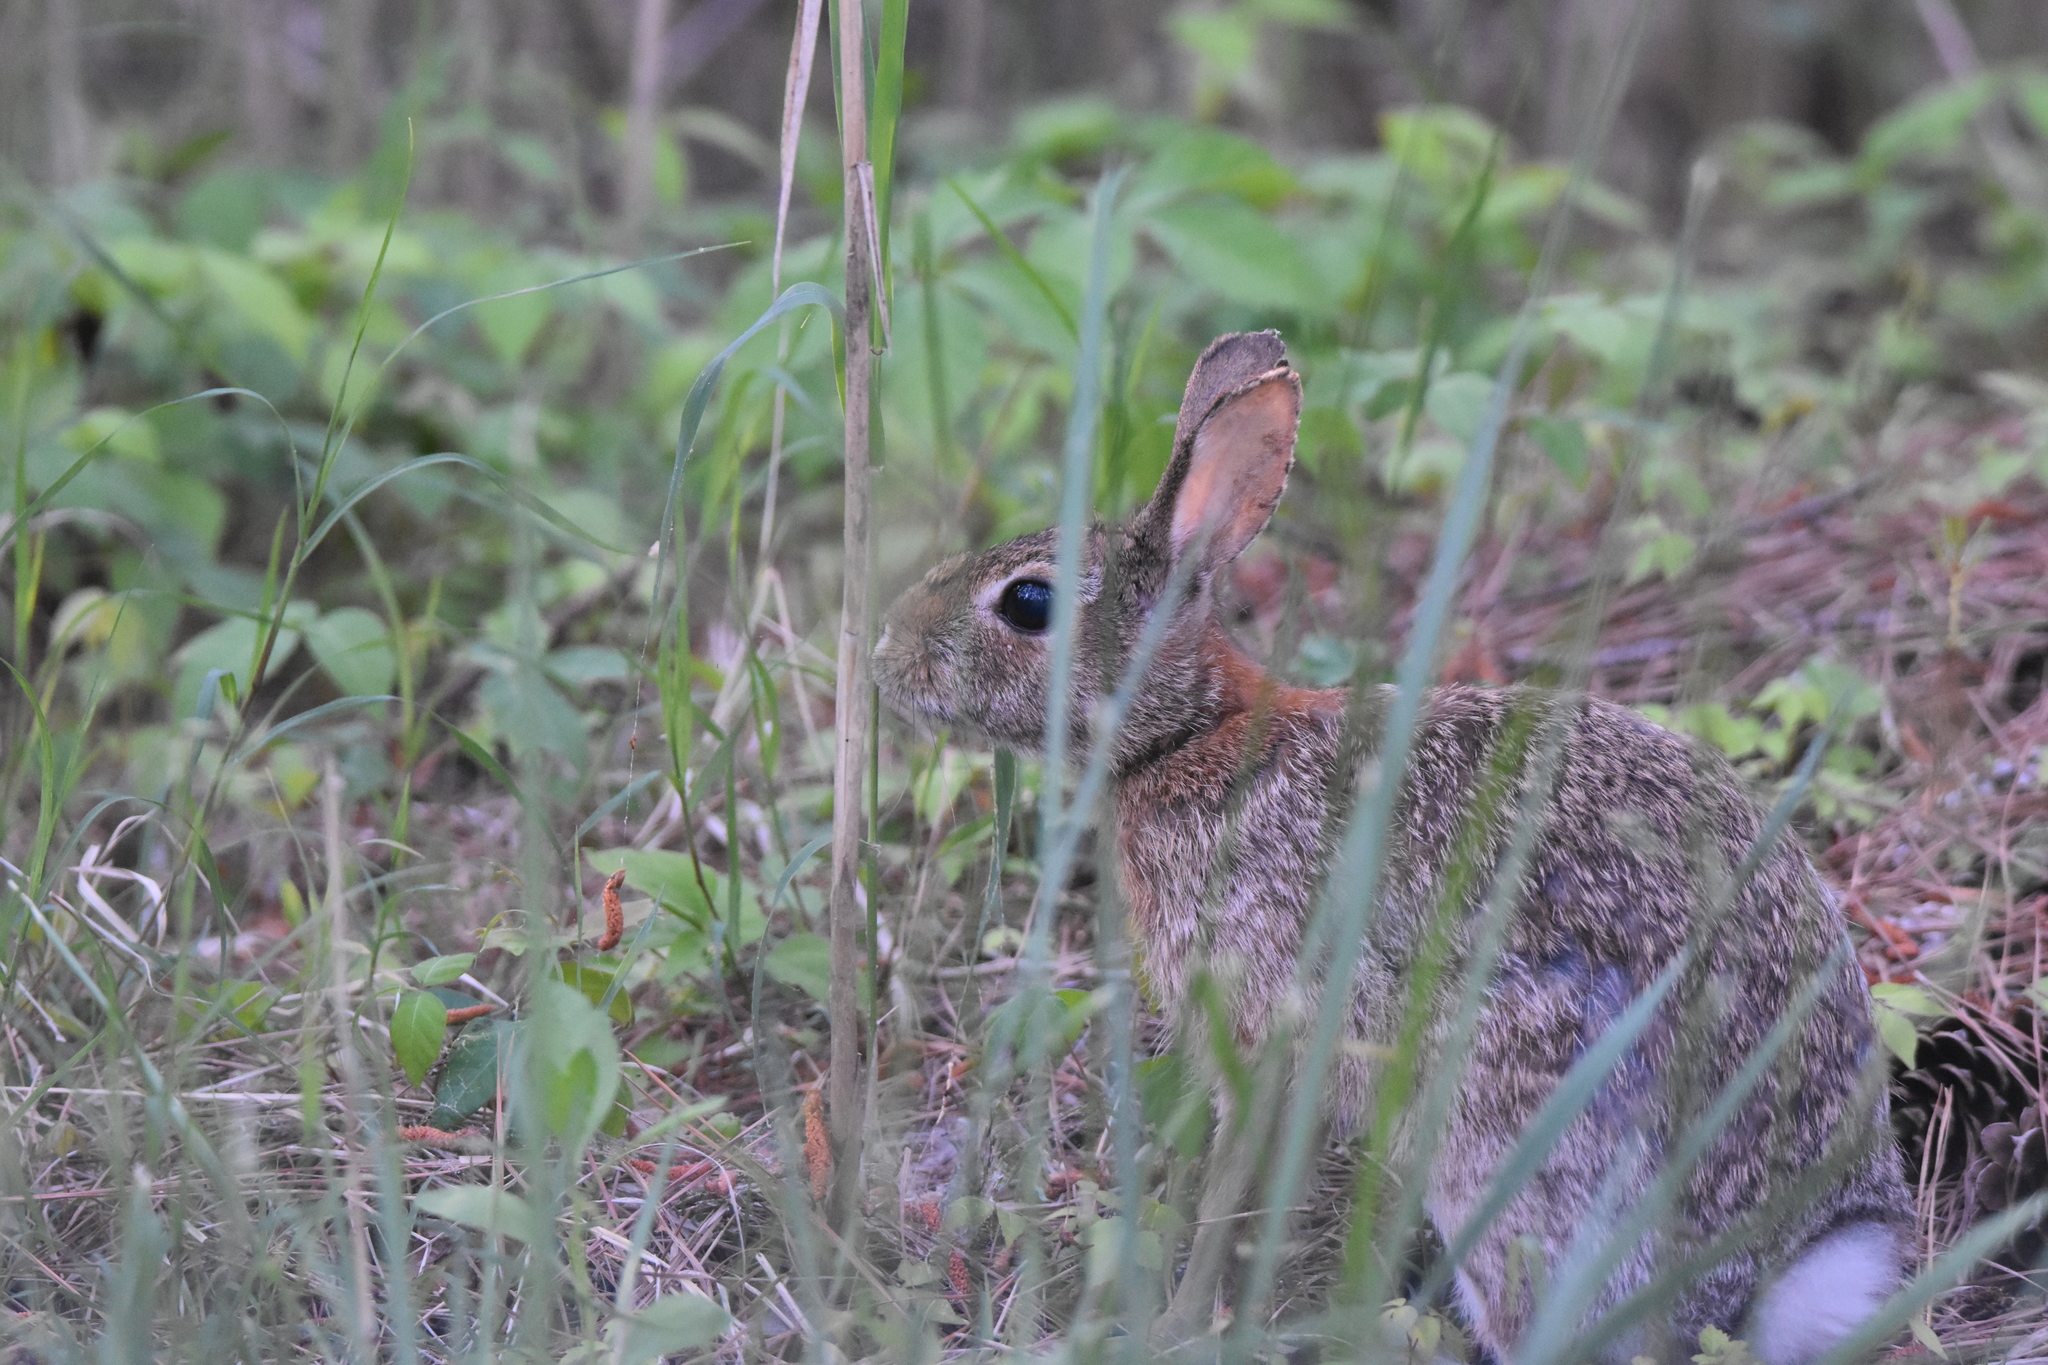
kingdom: Animalia
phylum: Chordata
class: Mammalia
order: Lagomorpha
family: Leporidae
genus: Sylvilagus
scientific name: Sylvilagus floridanus
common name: Eastern cottontail
